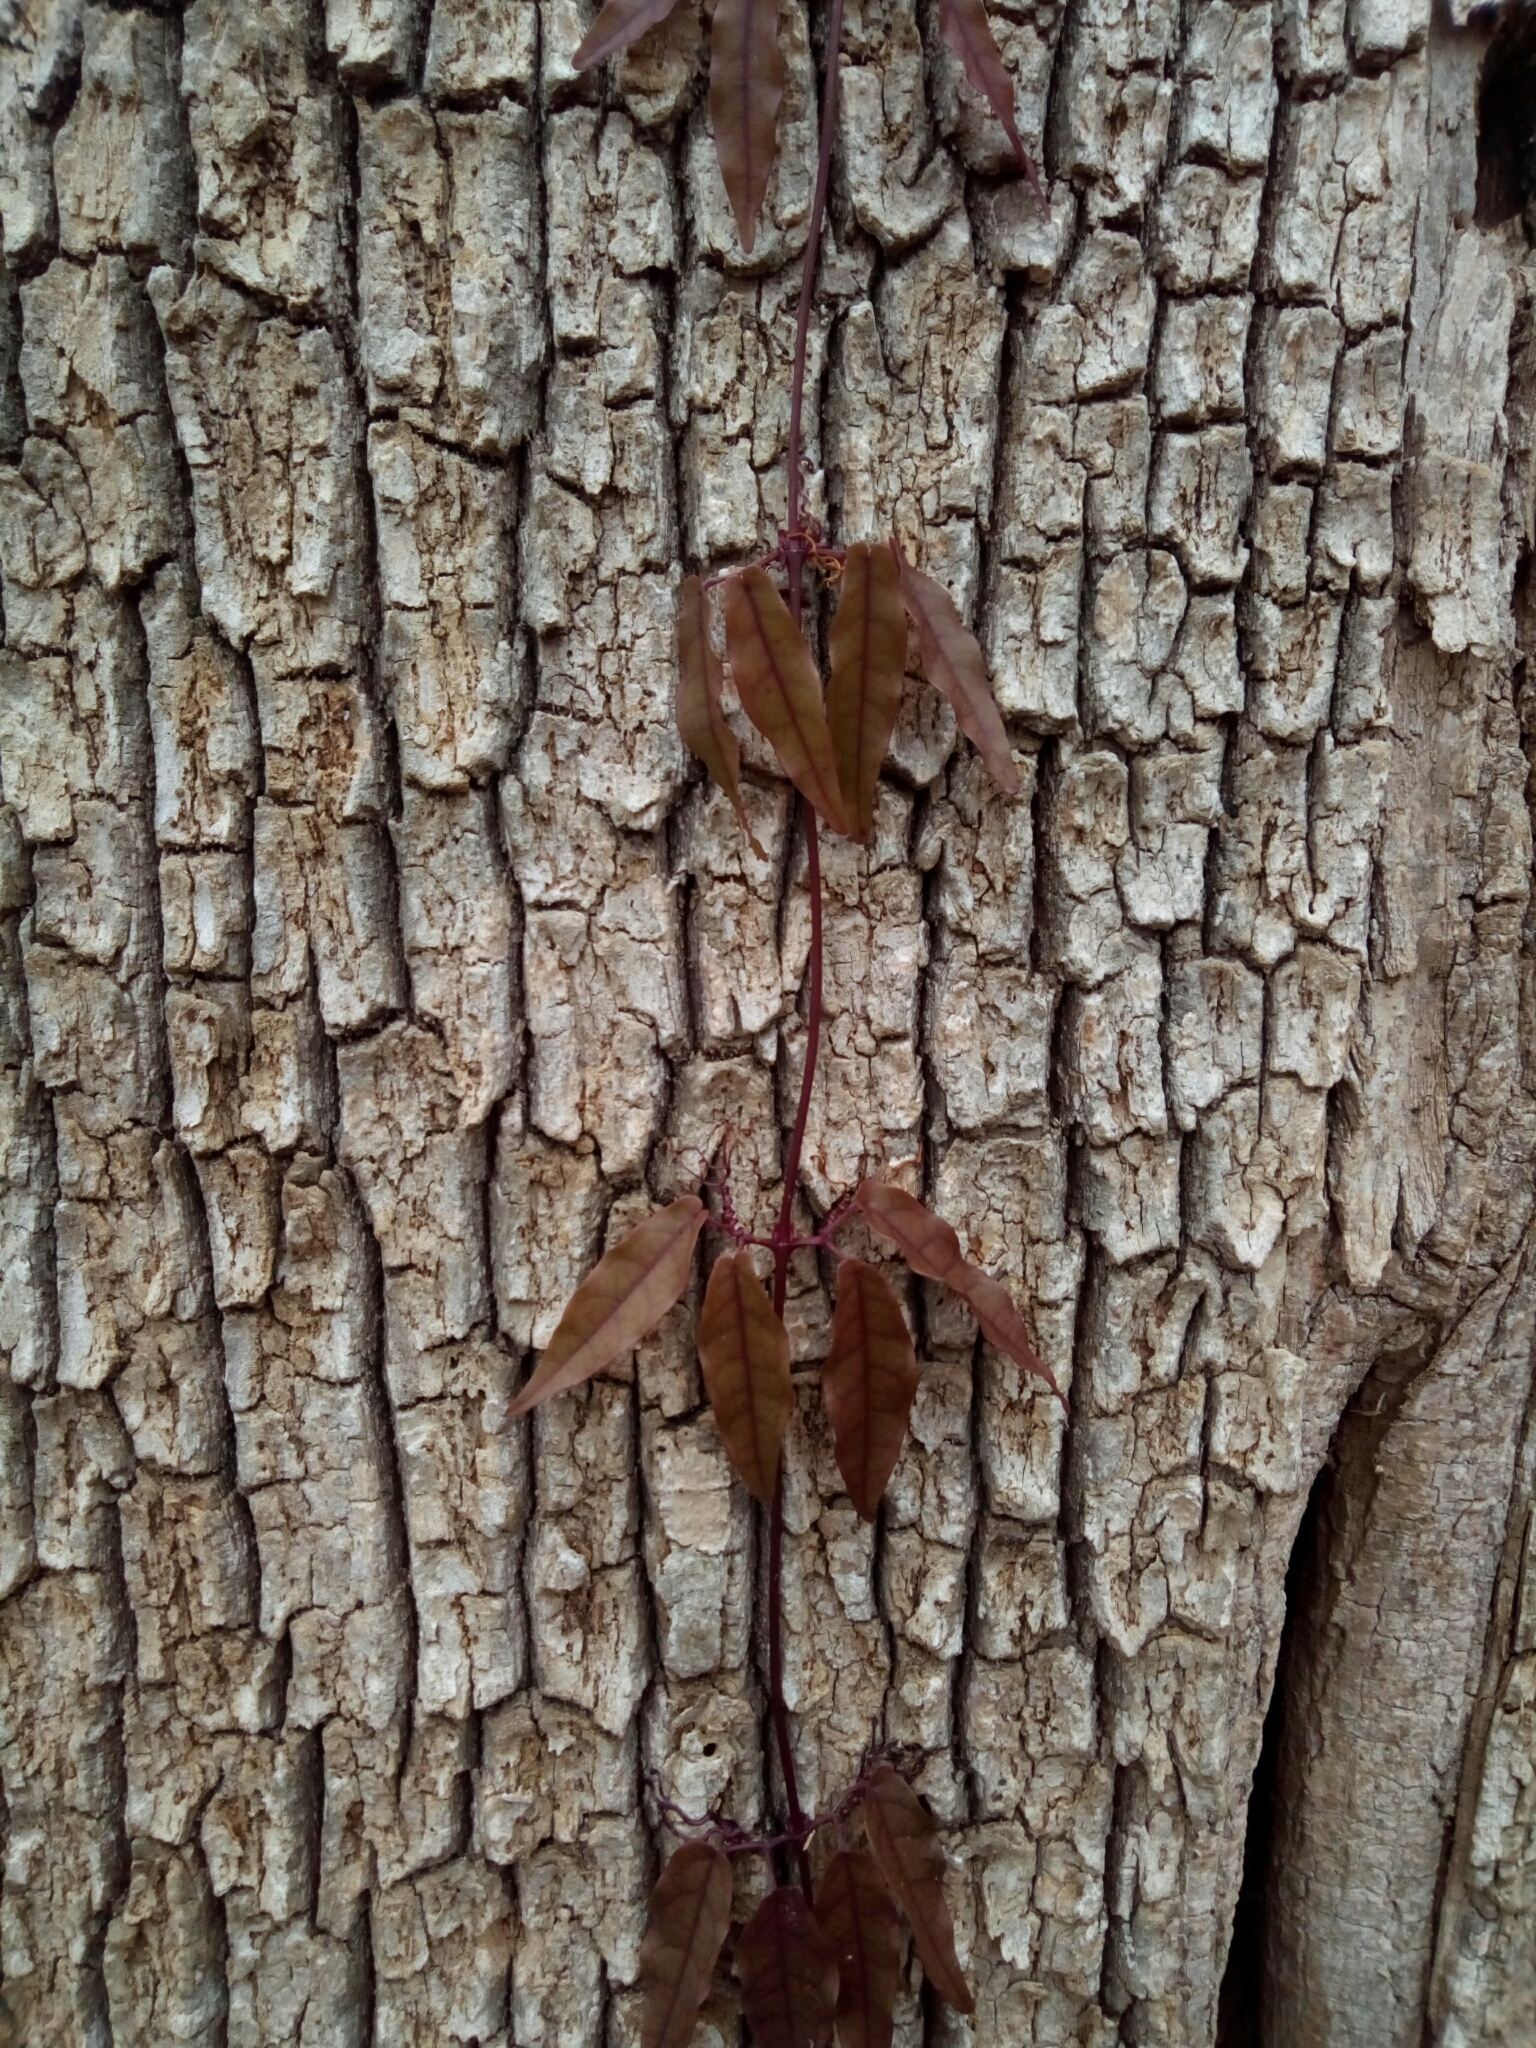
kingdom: Plantae
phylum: Tracheophyta
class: Magnoliopsida
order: Lamiales
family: Bignoniaceae
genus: Bignonia
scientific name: Bignonia capreolata
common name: Crossvine
